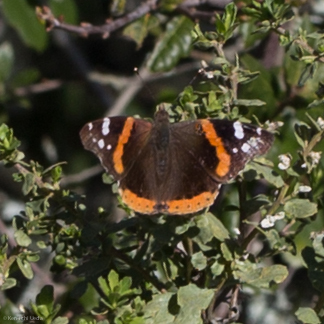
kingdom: Animalia
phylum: Arthropoda
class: Insecta
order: Lepidoptera
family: Nymphalidae
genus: Vanessa
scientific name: Vanessa atalanta
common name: Red admiral
